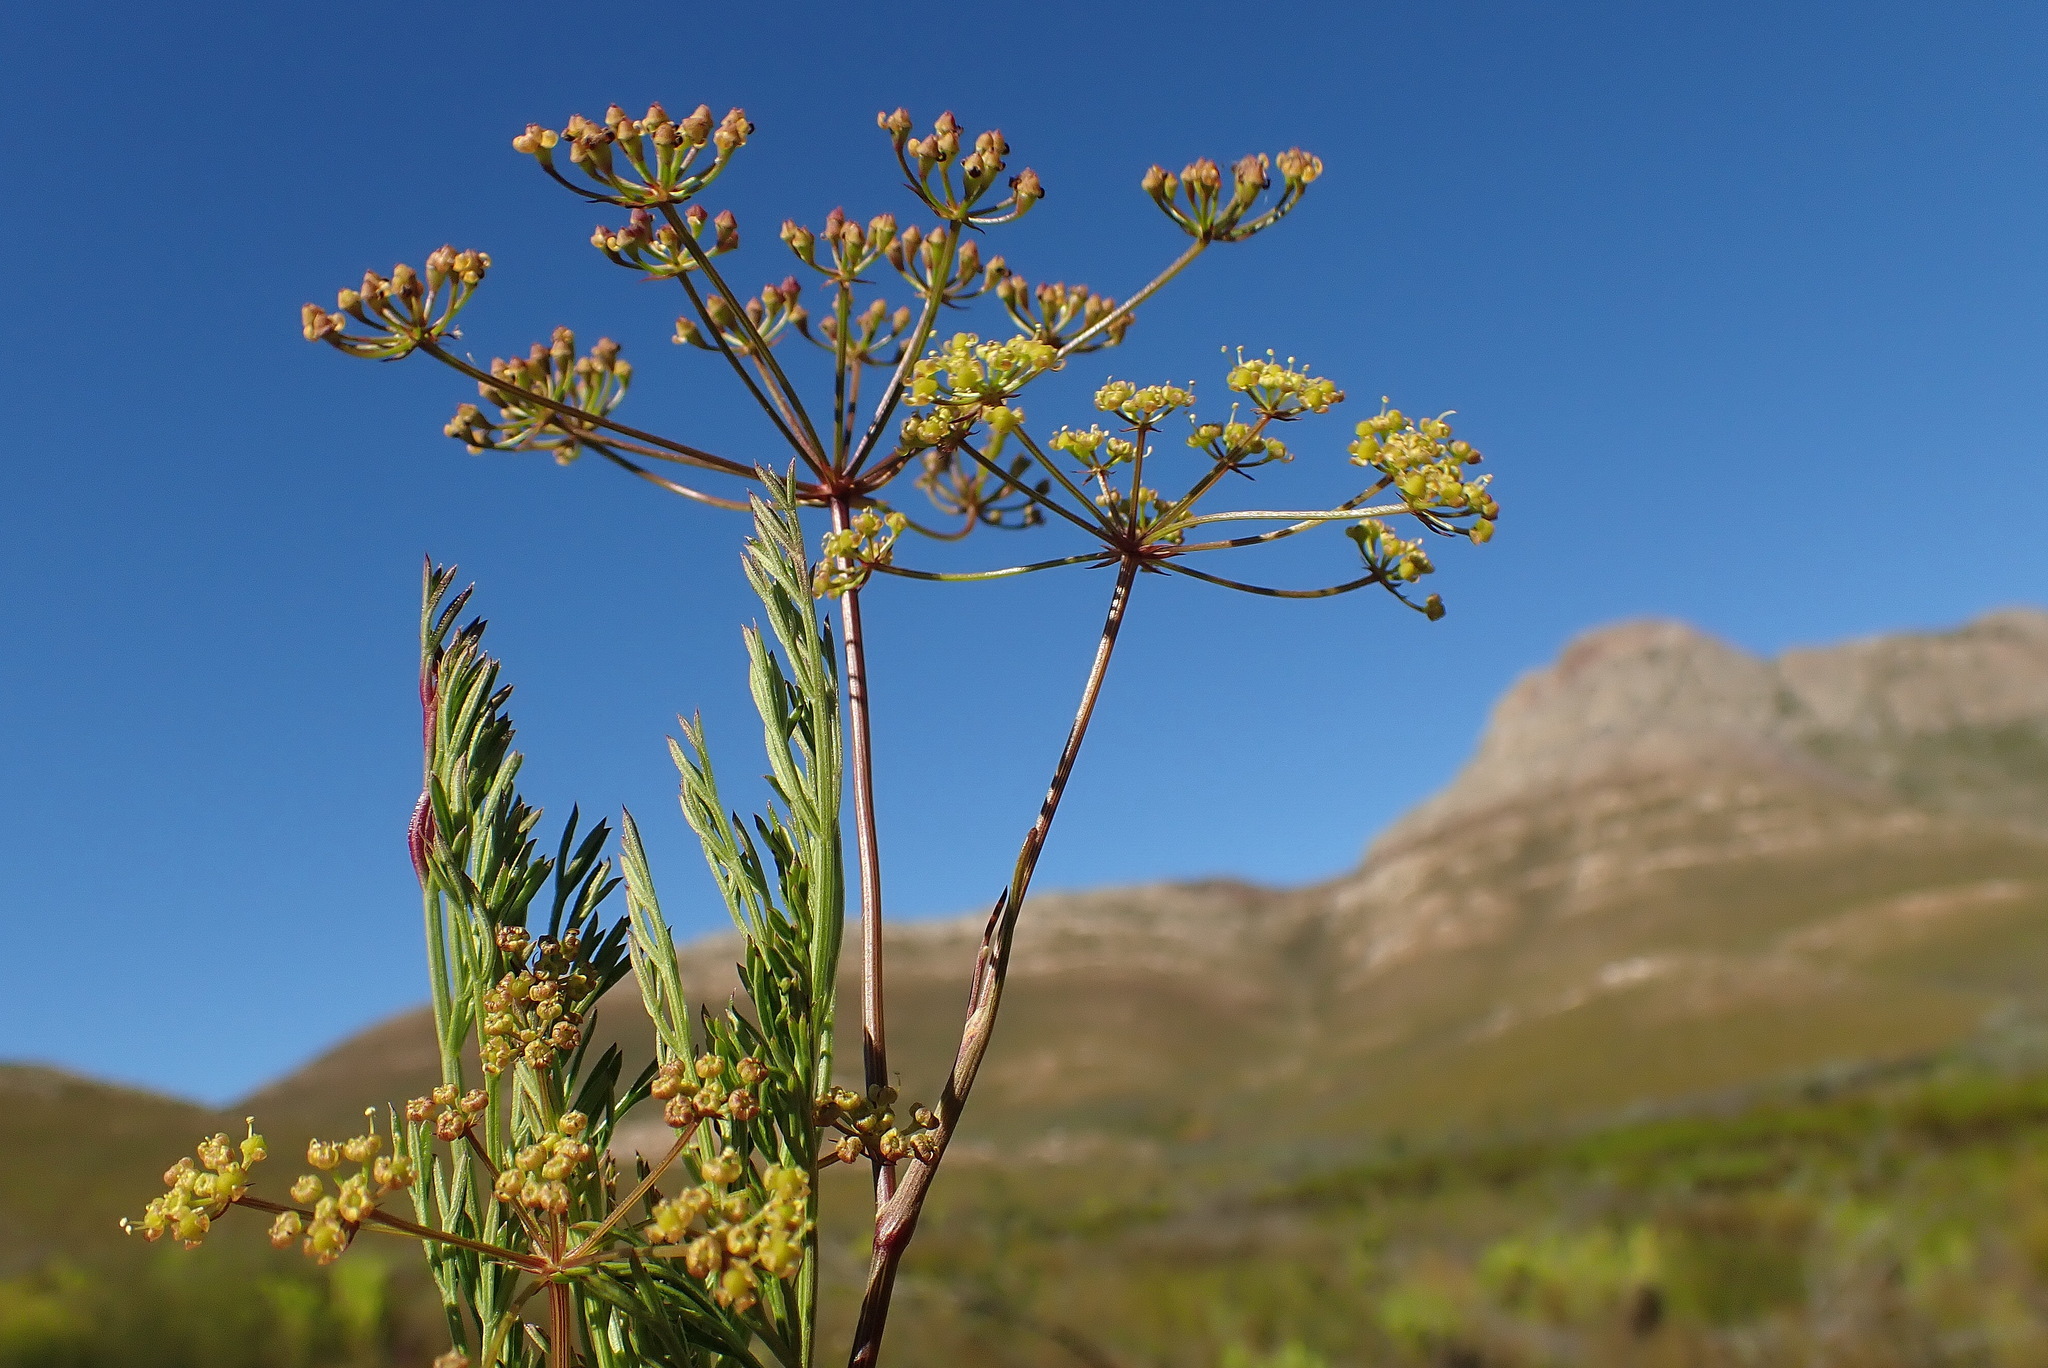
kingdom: Plantae
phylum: Tracheophyta
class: Magnoliopsida
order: Apiales
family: Apiaceae
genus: Notobubon
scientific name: Notobubon ferulaceum
